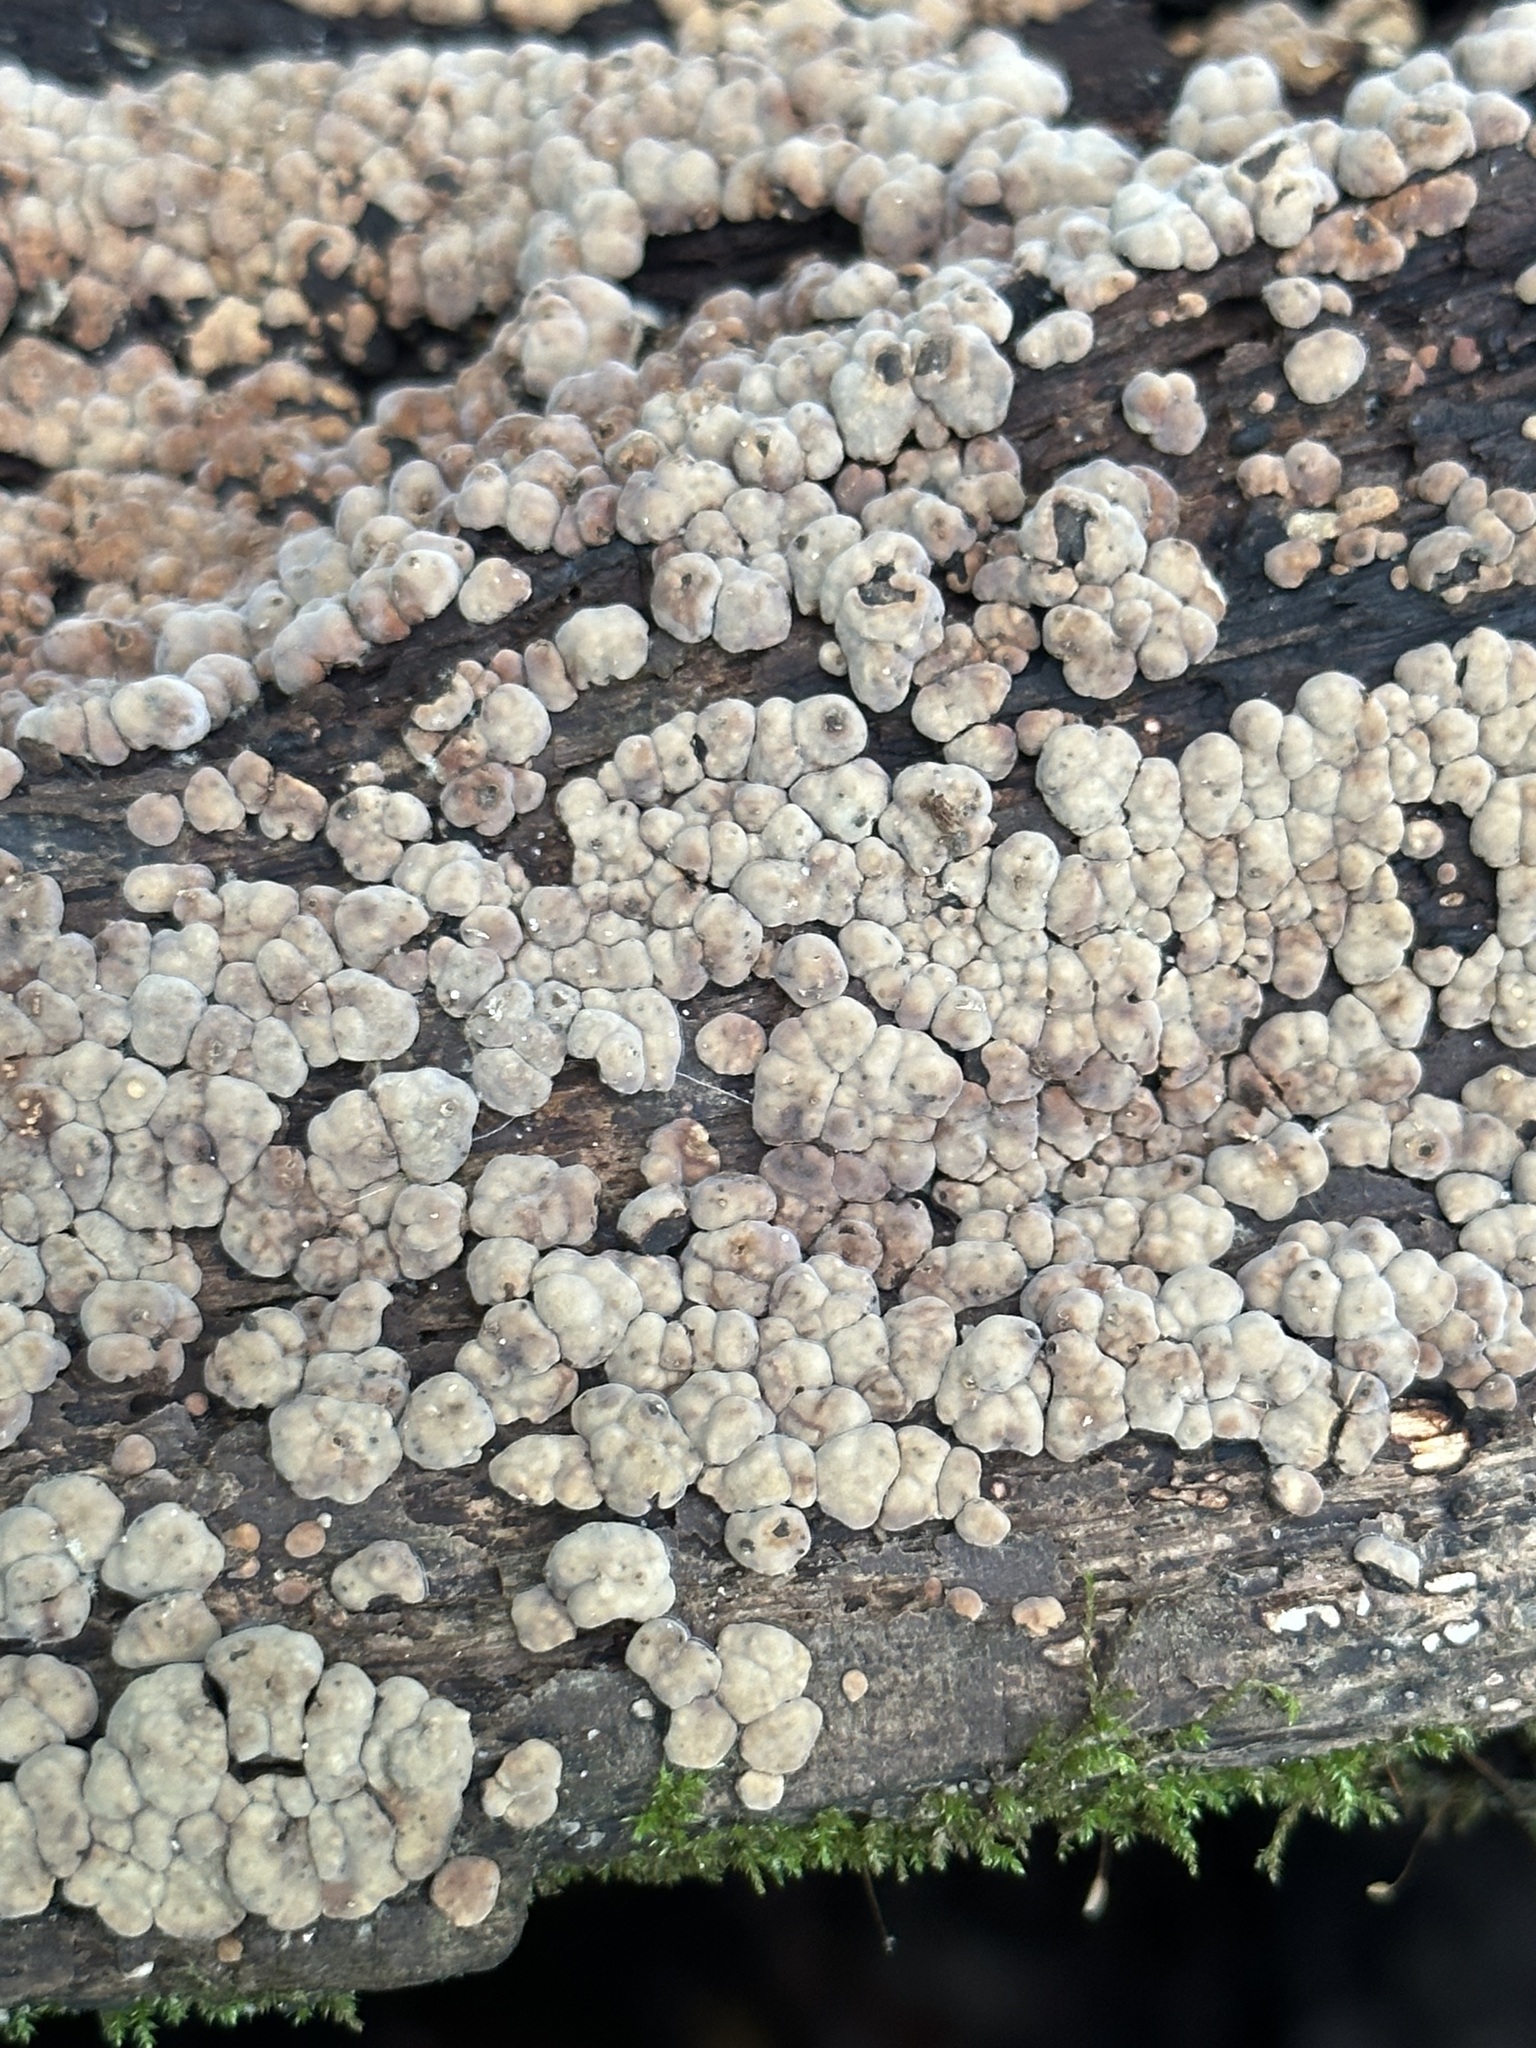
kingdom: Fungi
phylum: Basidiomycota
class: Agaricomycetes
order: Russulales
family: Stereaceae
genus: Xylobolus
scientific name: Xylobolus frustulatus
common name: Ceramic parchment
